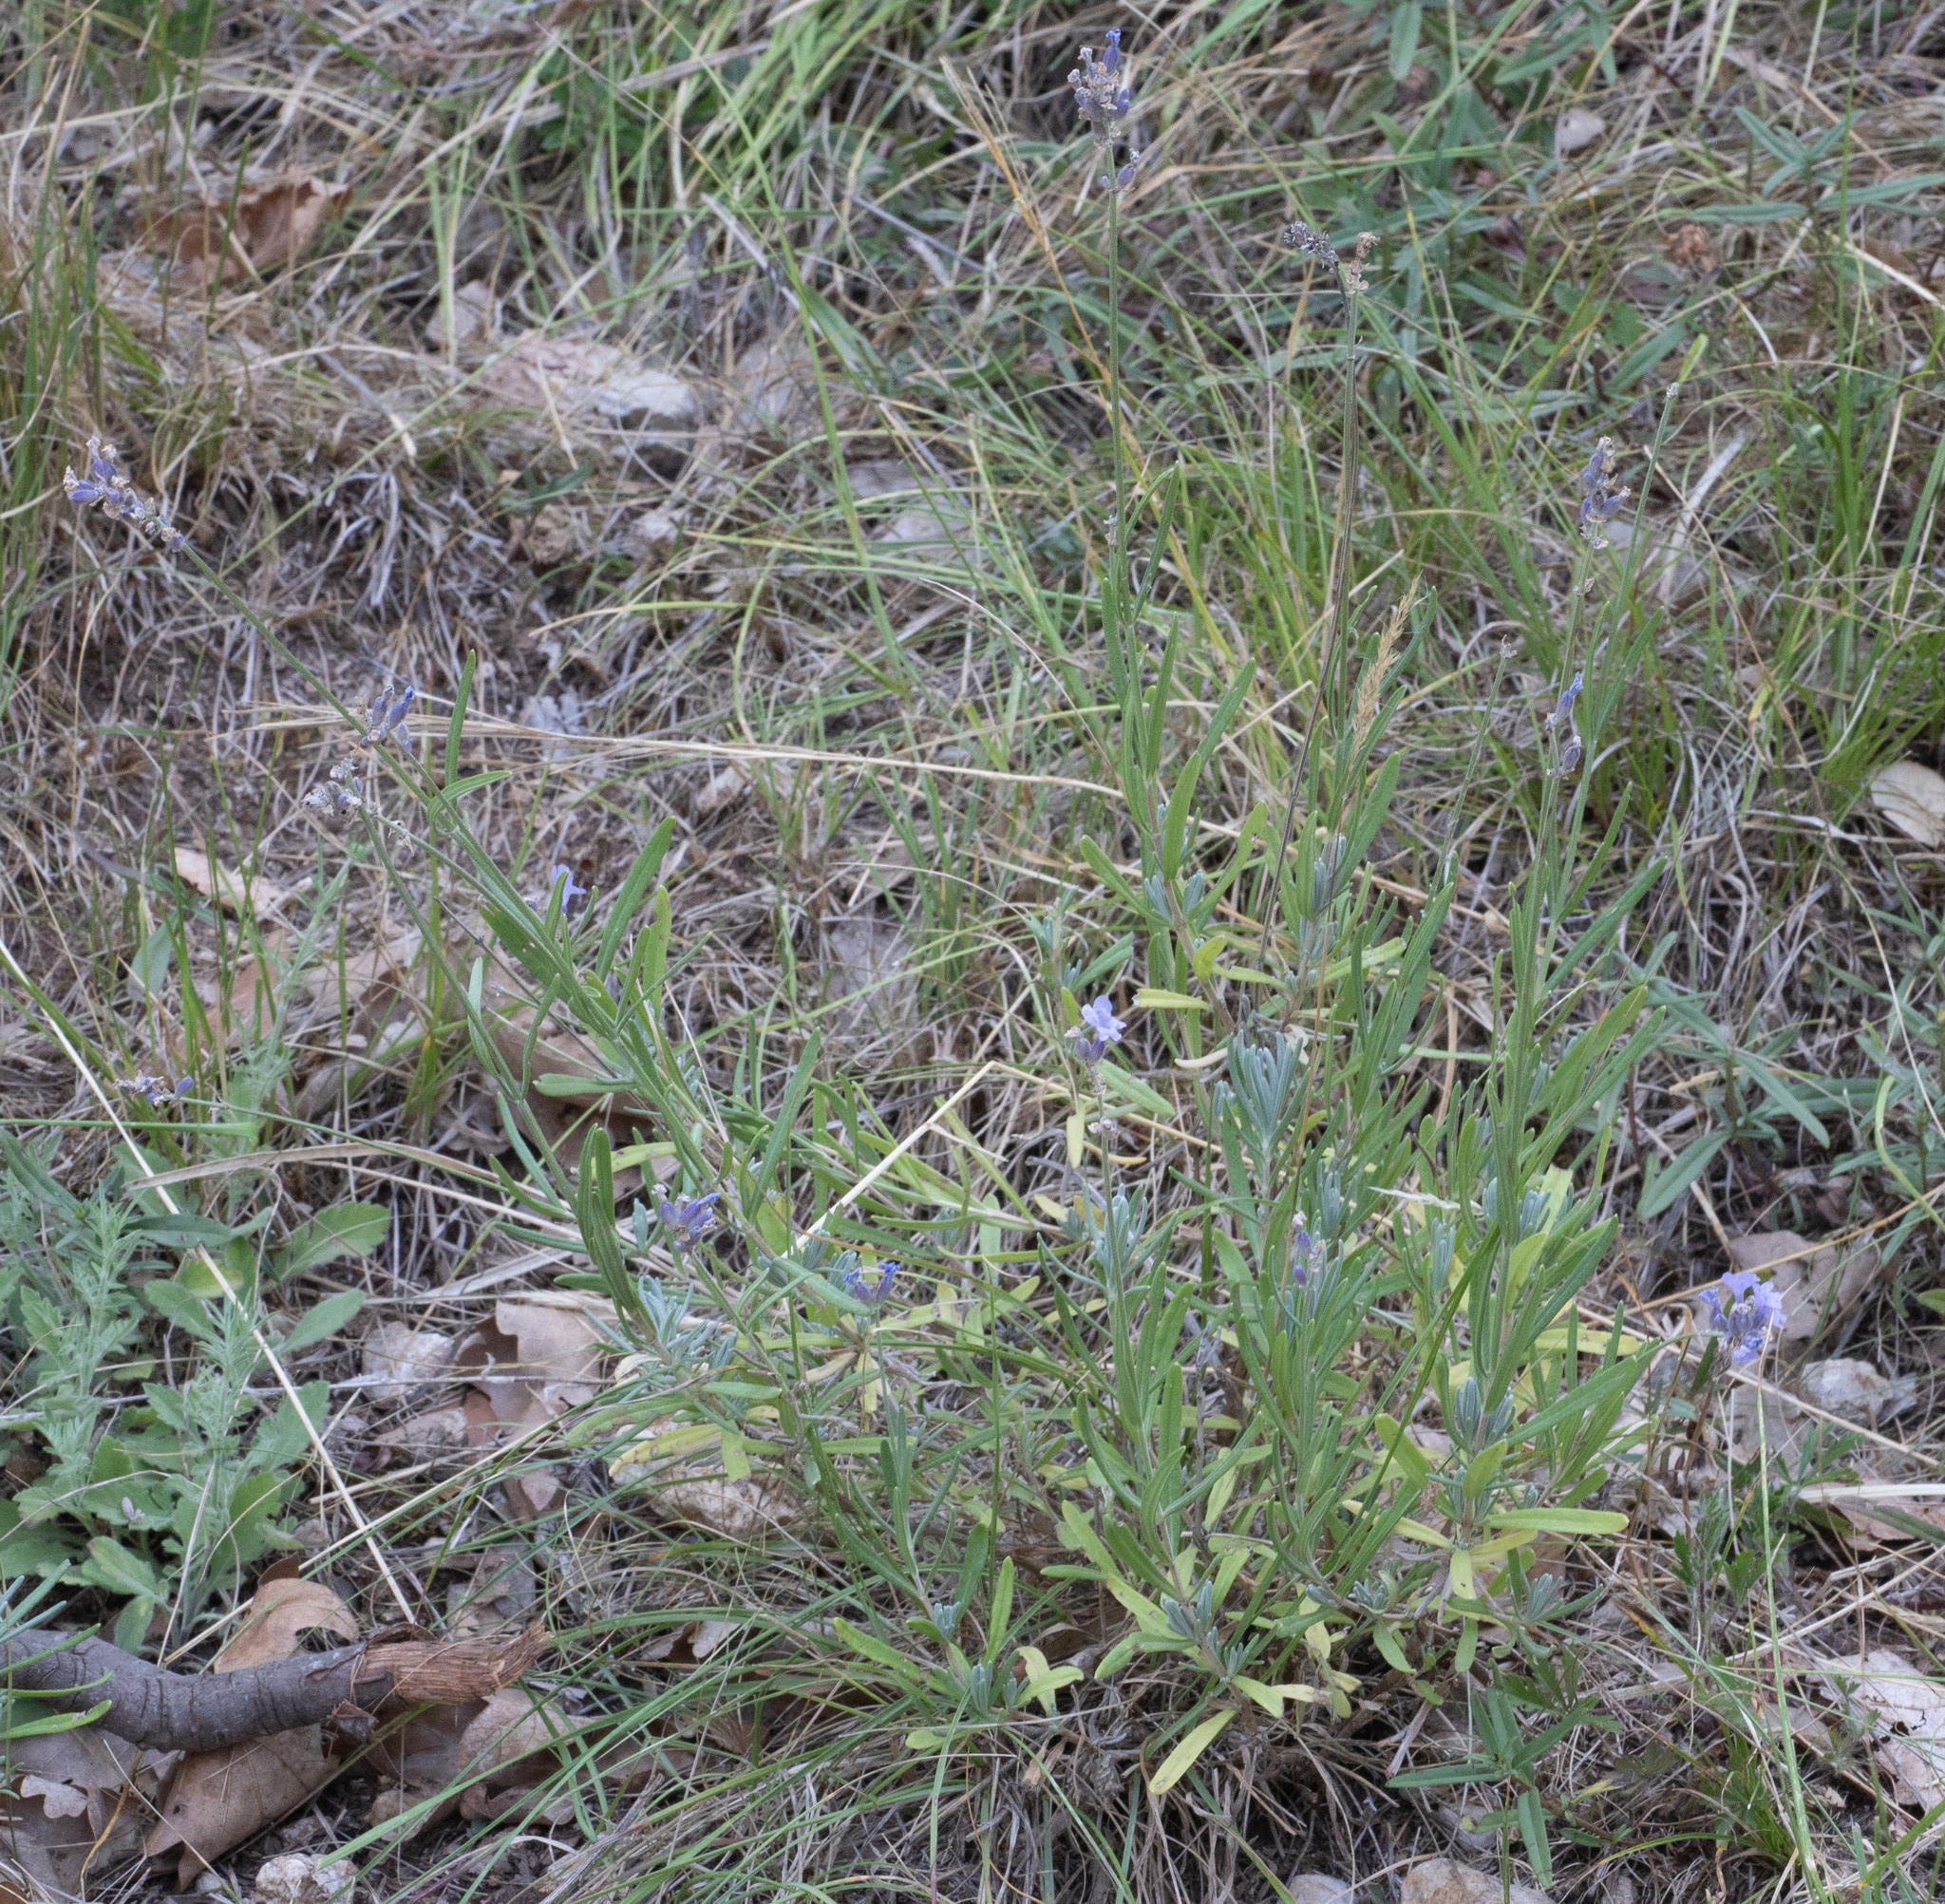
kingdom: Plantae
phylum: Tracheophyta
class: Magnoliopsida
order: Lamiales
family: Lamiaceae
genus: Lavandula
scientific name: Lavandula angustifolia
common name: Garden lavender
